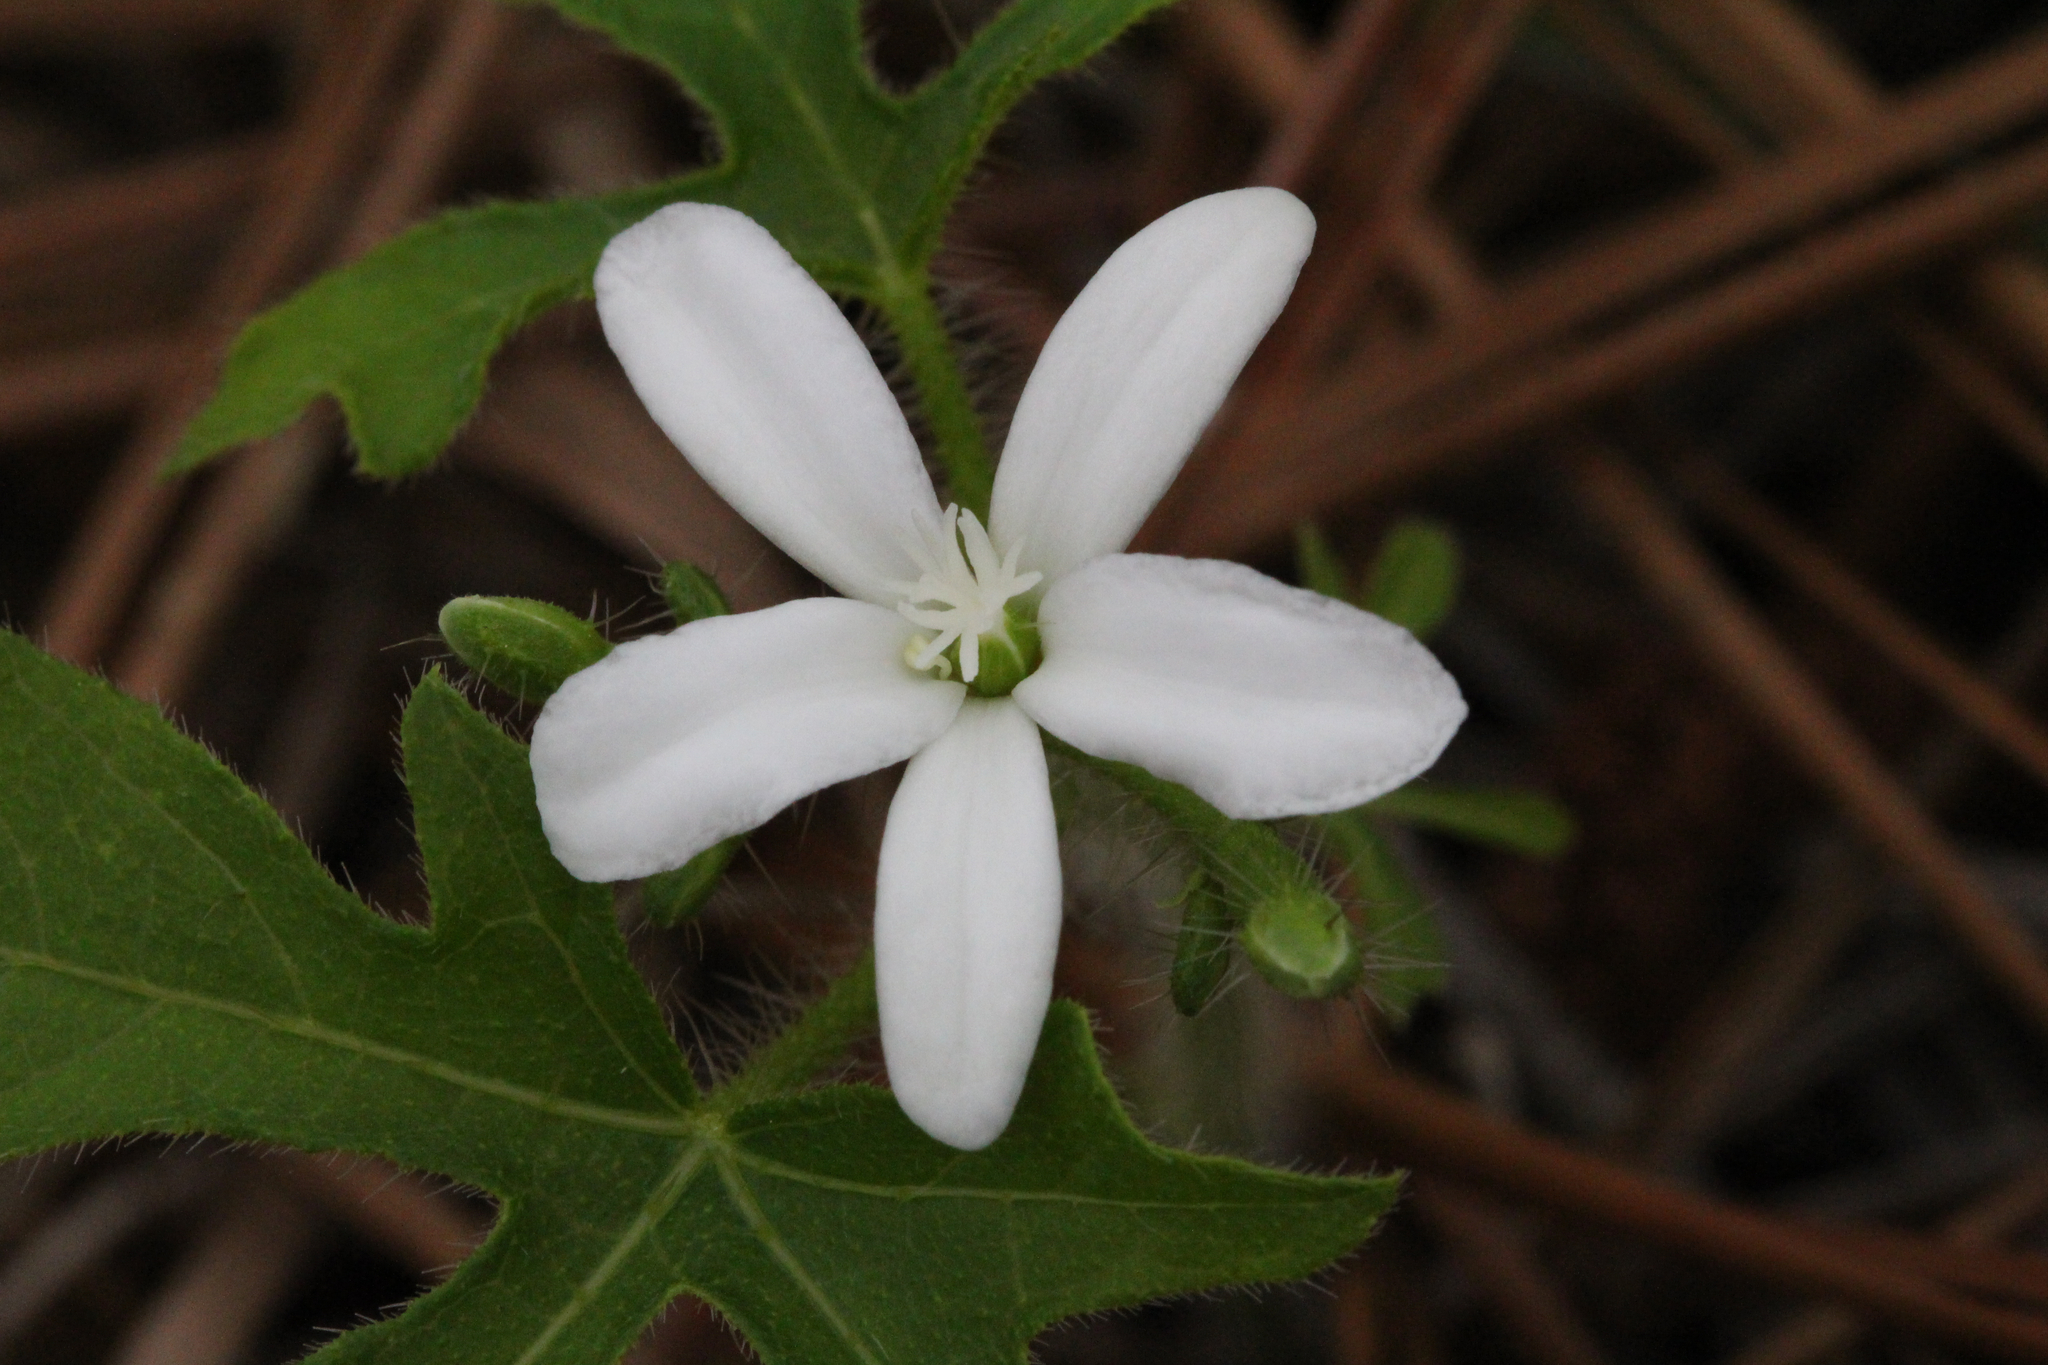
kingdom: Plantae
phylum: Tracheophyta
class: Magnoliopsida
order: Malpighiales
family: Euphorbiaceae
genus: Cnidoscolus
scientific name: Cnidoscolus stimulosus
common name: Bull-nettle
